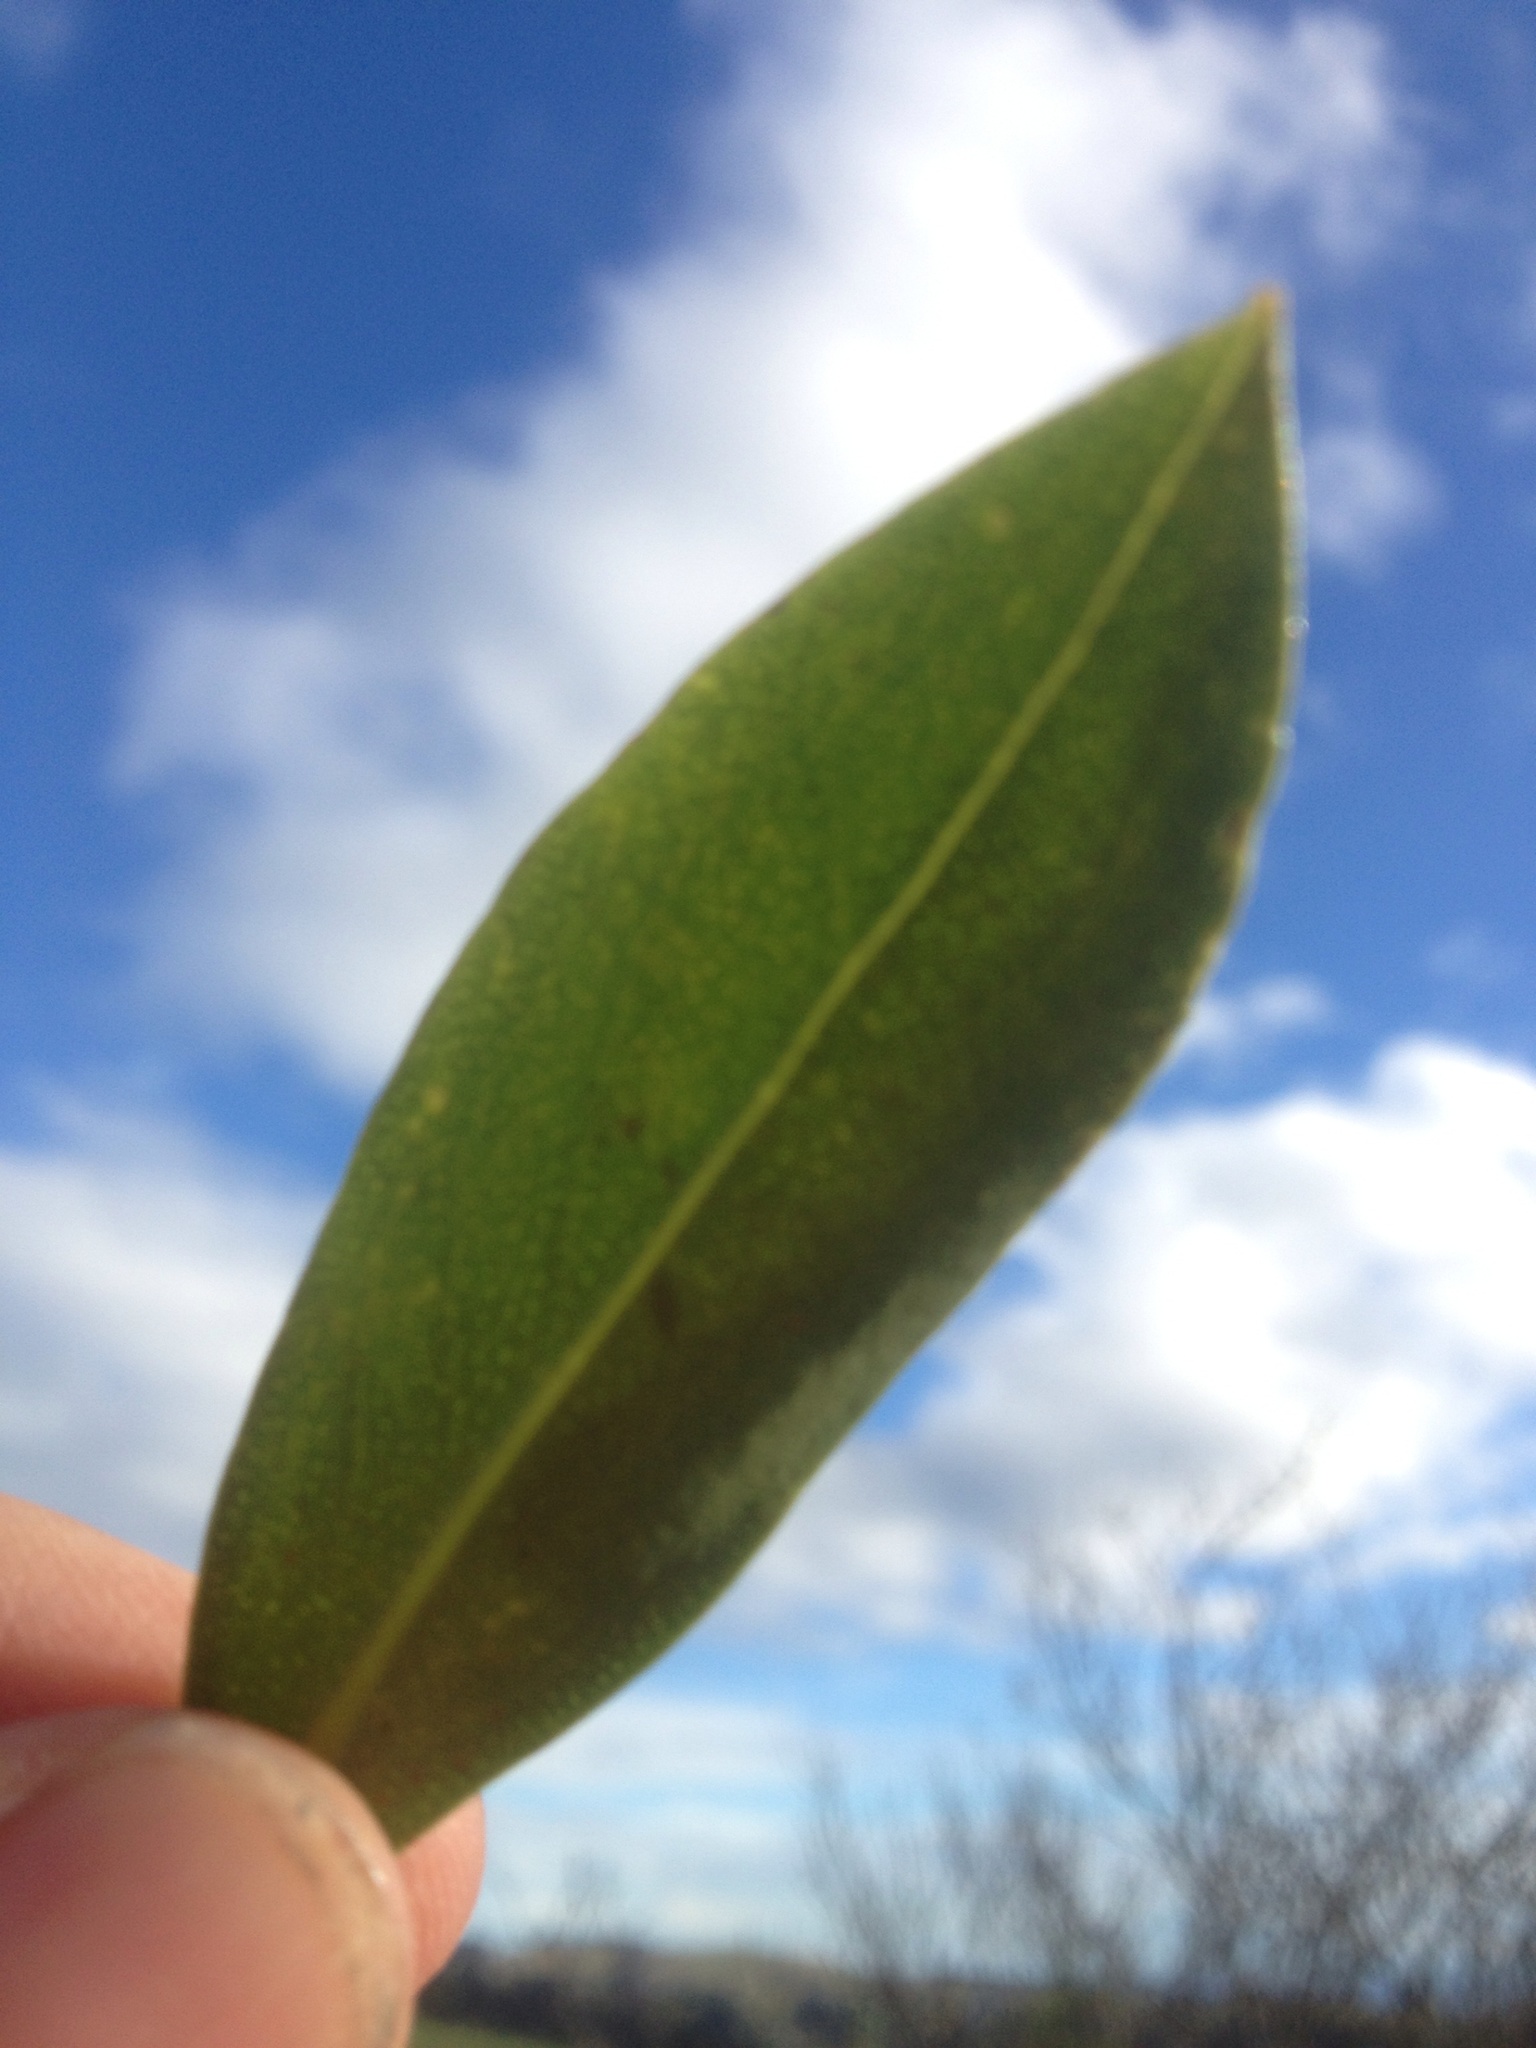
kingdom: Plantae
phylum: Tracheophyta
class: Magnoliopsida
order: Lamiales
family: Scrophulariaceae
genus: Myoporum
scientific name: Myoporum insulare
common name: Common boobialla
